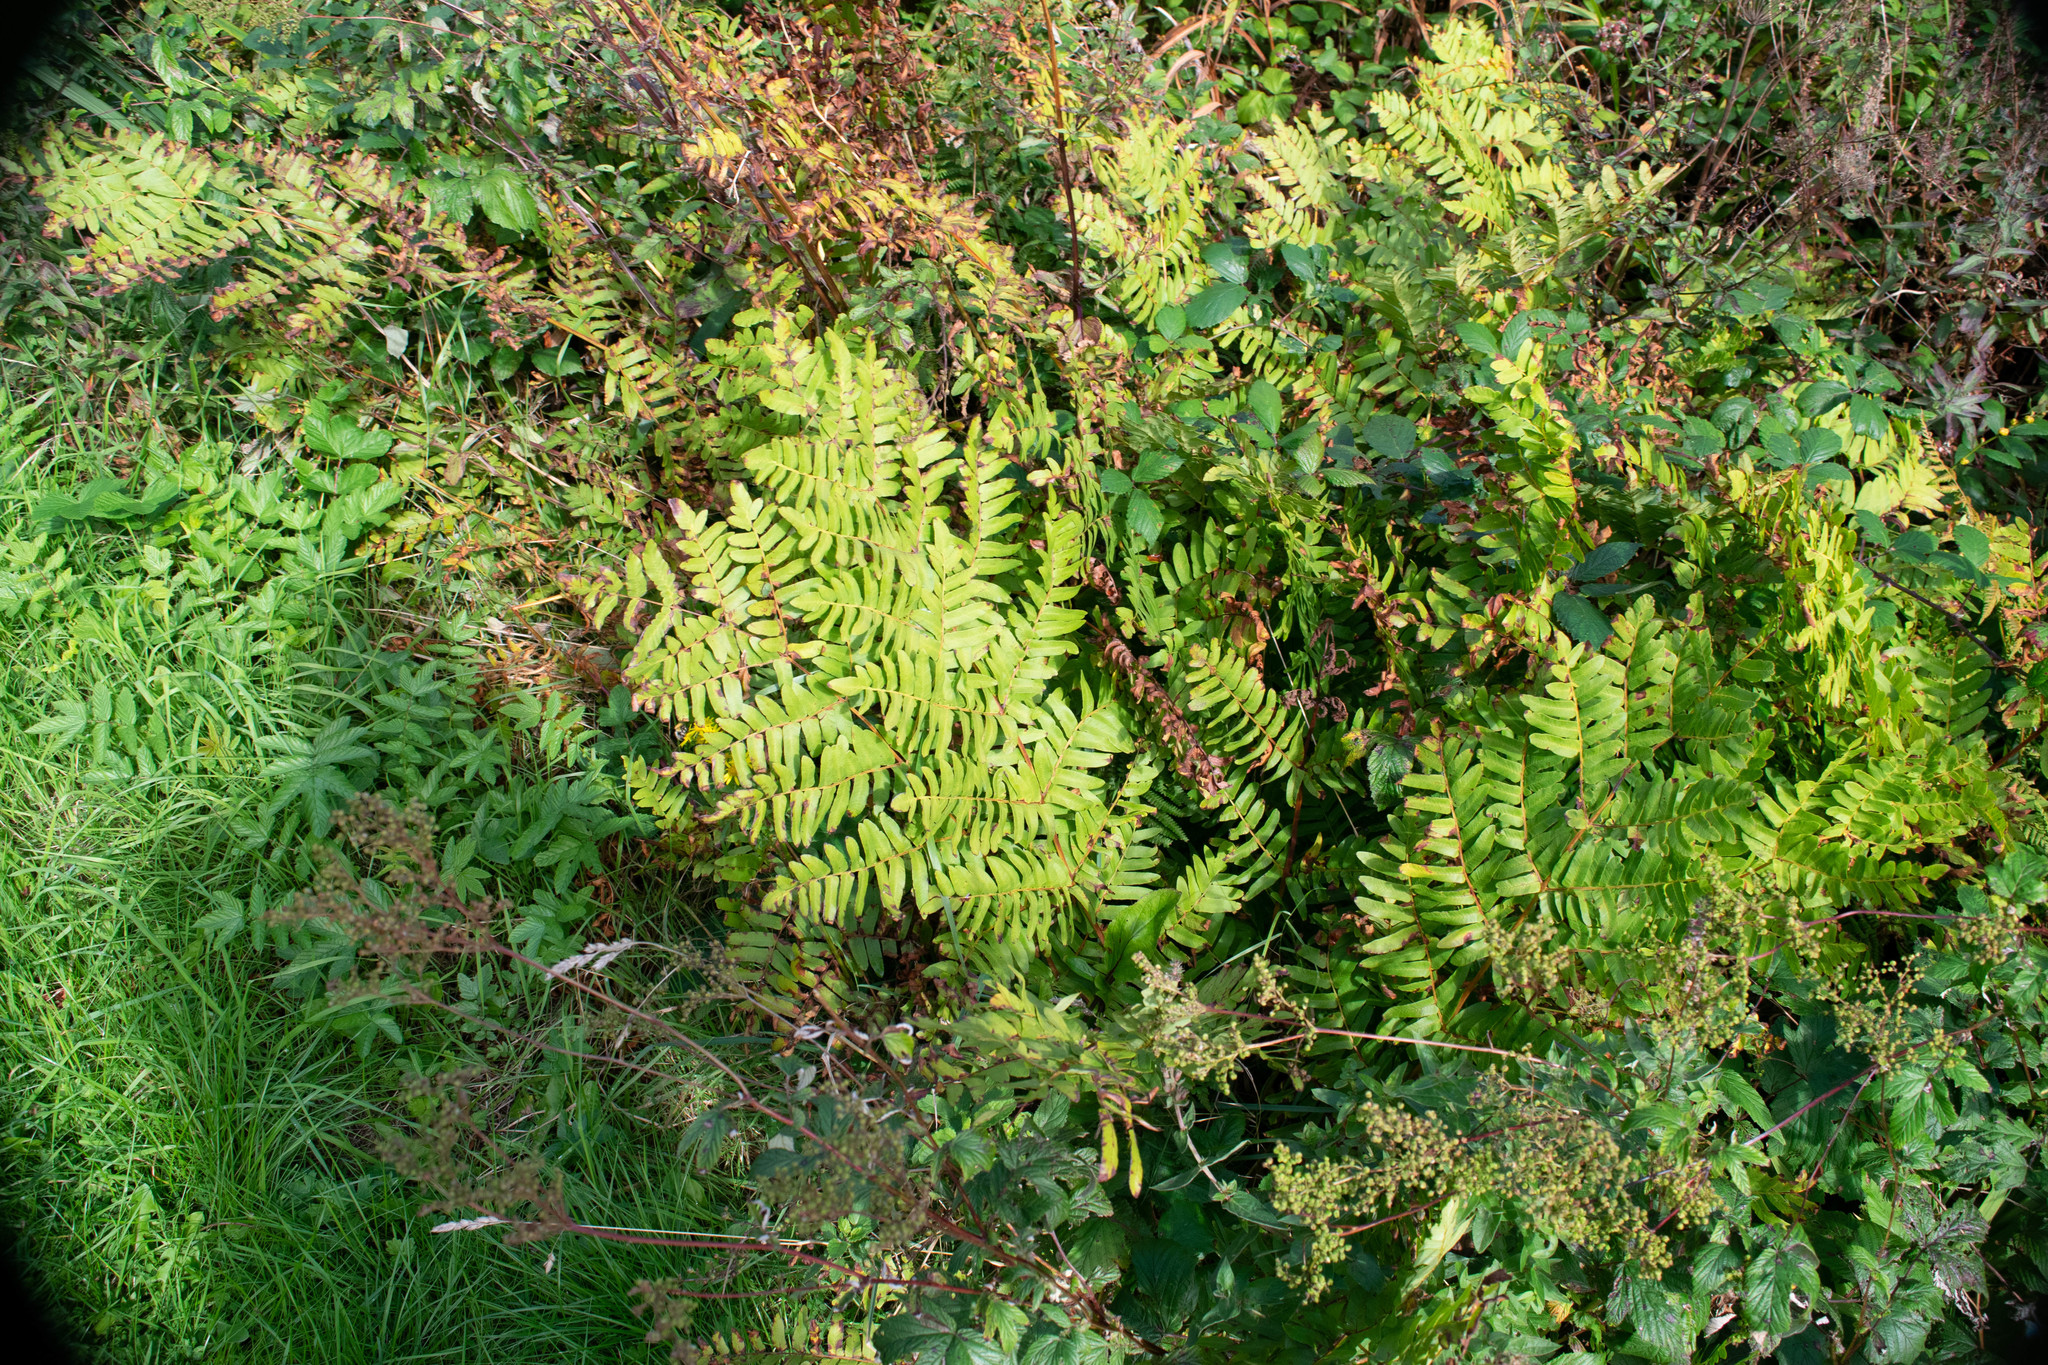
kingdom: Plantae
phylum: Tracheophyta
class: Polypodiopsida
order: Osmundales
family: Osmundaceae
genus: Osmunda
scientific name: Osmunda regalis
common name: Royal fern
